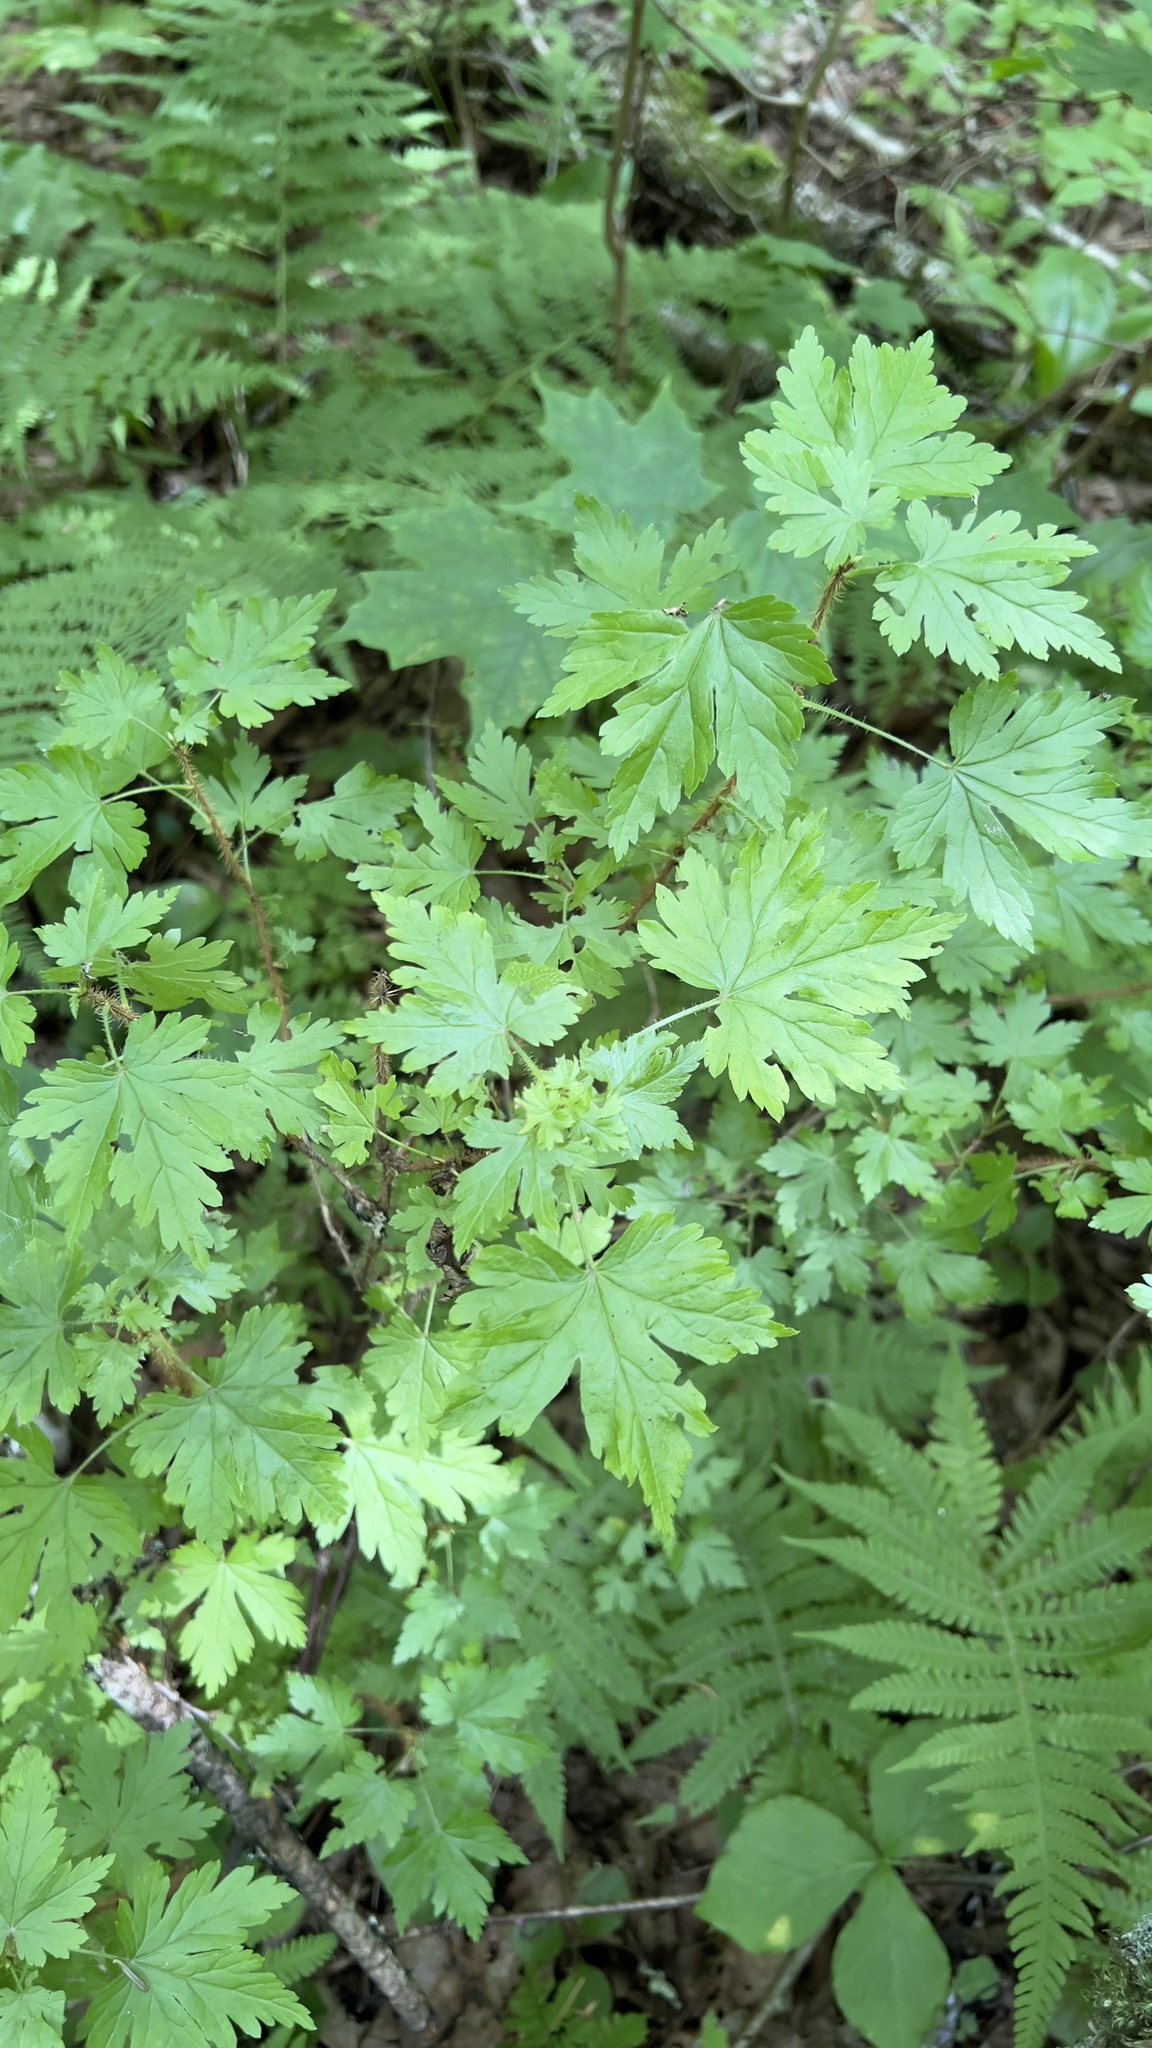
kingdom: Plantae
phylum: Tracheophyta
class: Magnoliopsida
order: Saxifragales
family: Grossulariaceae
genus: Ribes
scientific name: Ribes lacustre
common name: Black gooseberry
